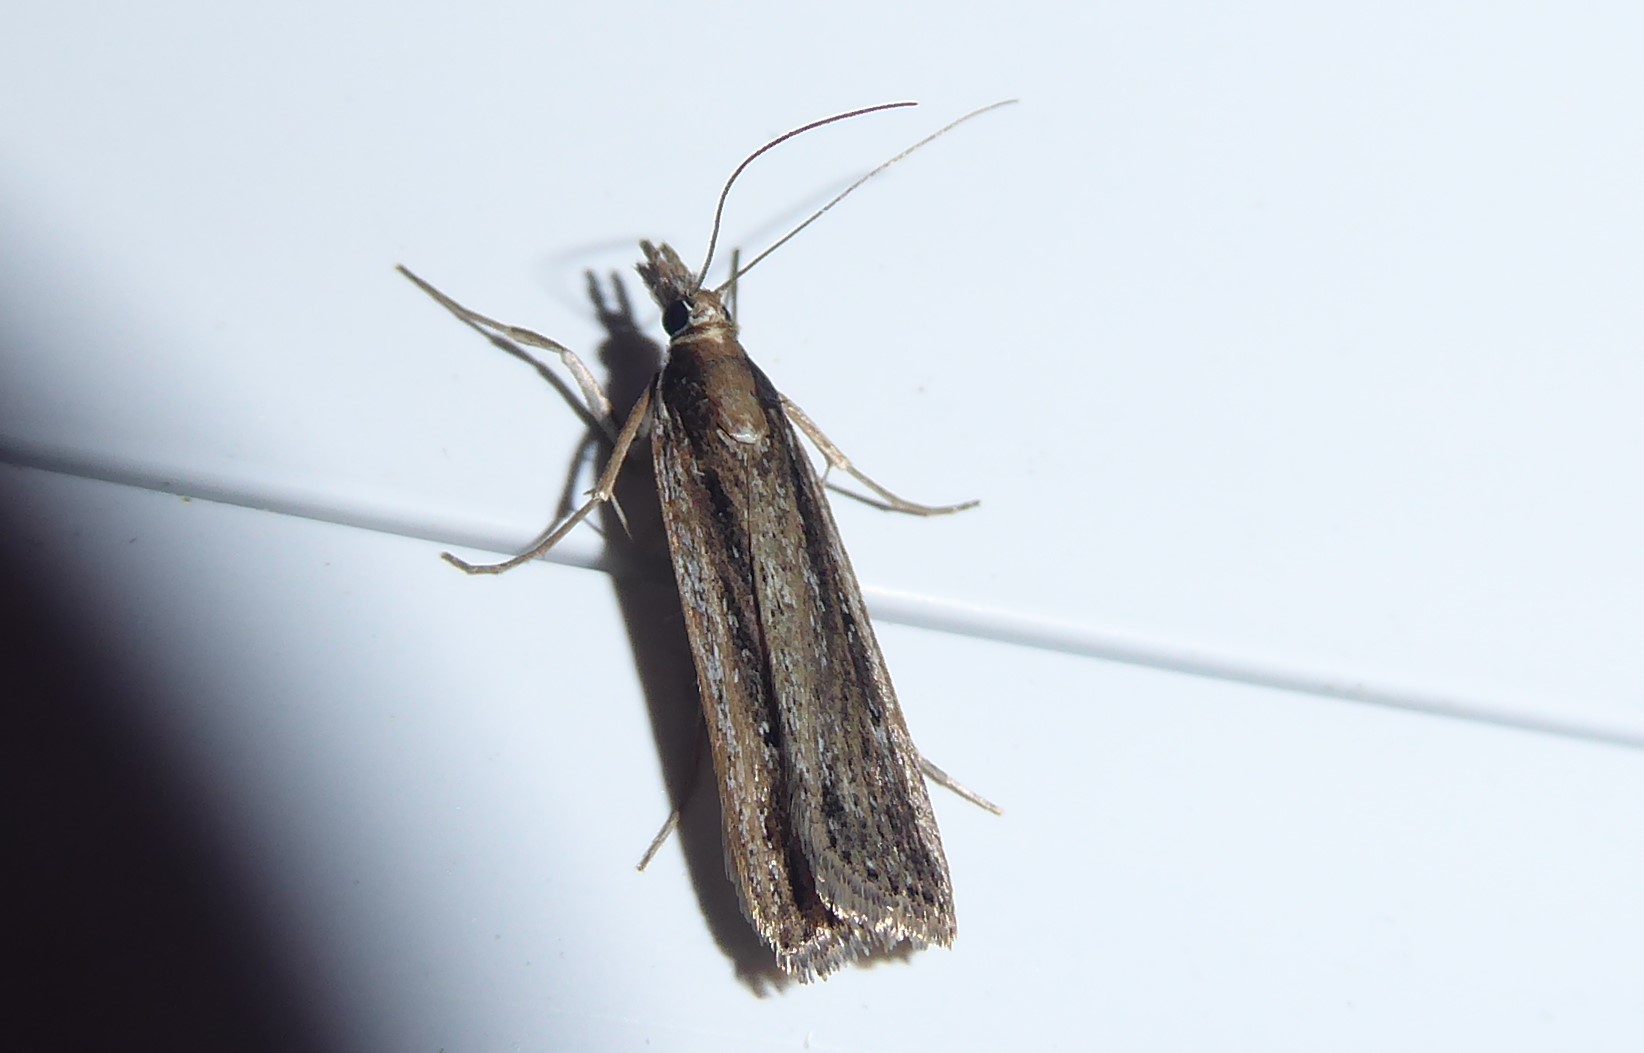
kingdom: Animalia
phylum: Arthropoda
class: Insecta
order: Lepidoptera
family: Crambidae
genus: Eudonia
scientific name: Eudonia sabulosella
